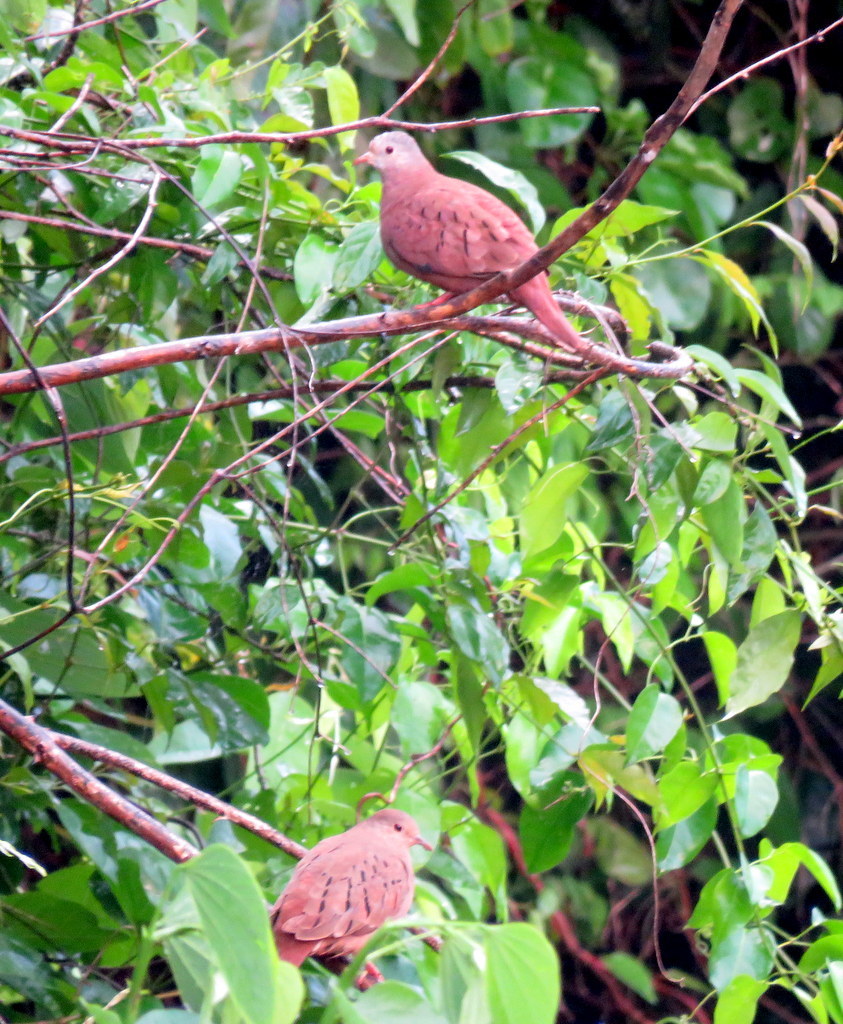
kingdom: Animalia
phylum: Chordata
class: Aves
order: Columbiformes
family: Columbidae
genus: Columbina
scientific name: Columbina talpacoti
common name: Ruddy ground dove
